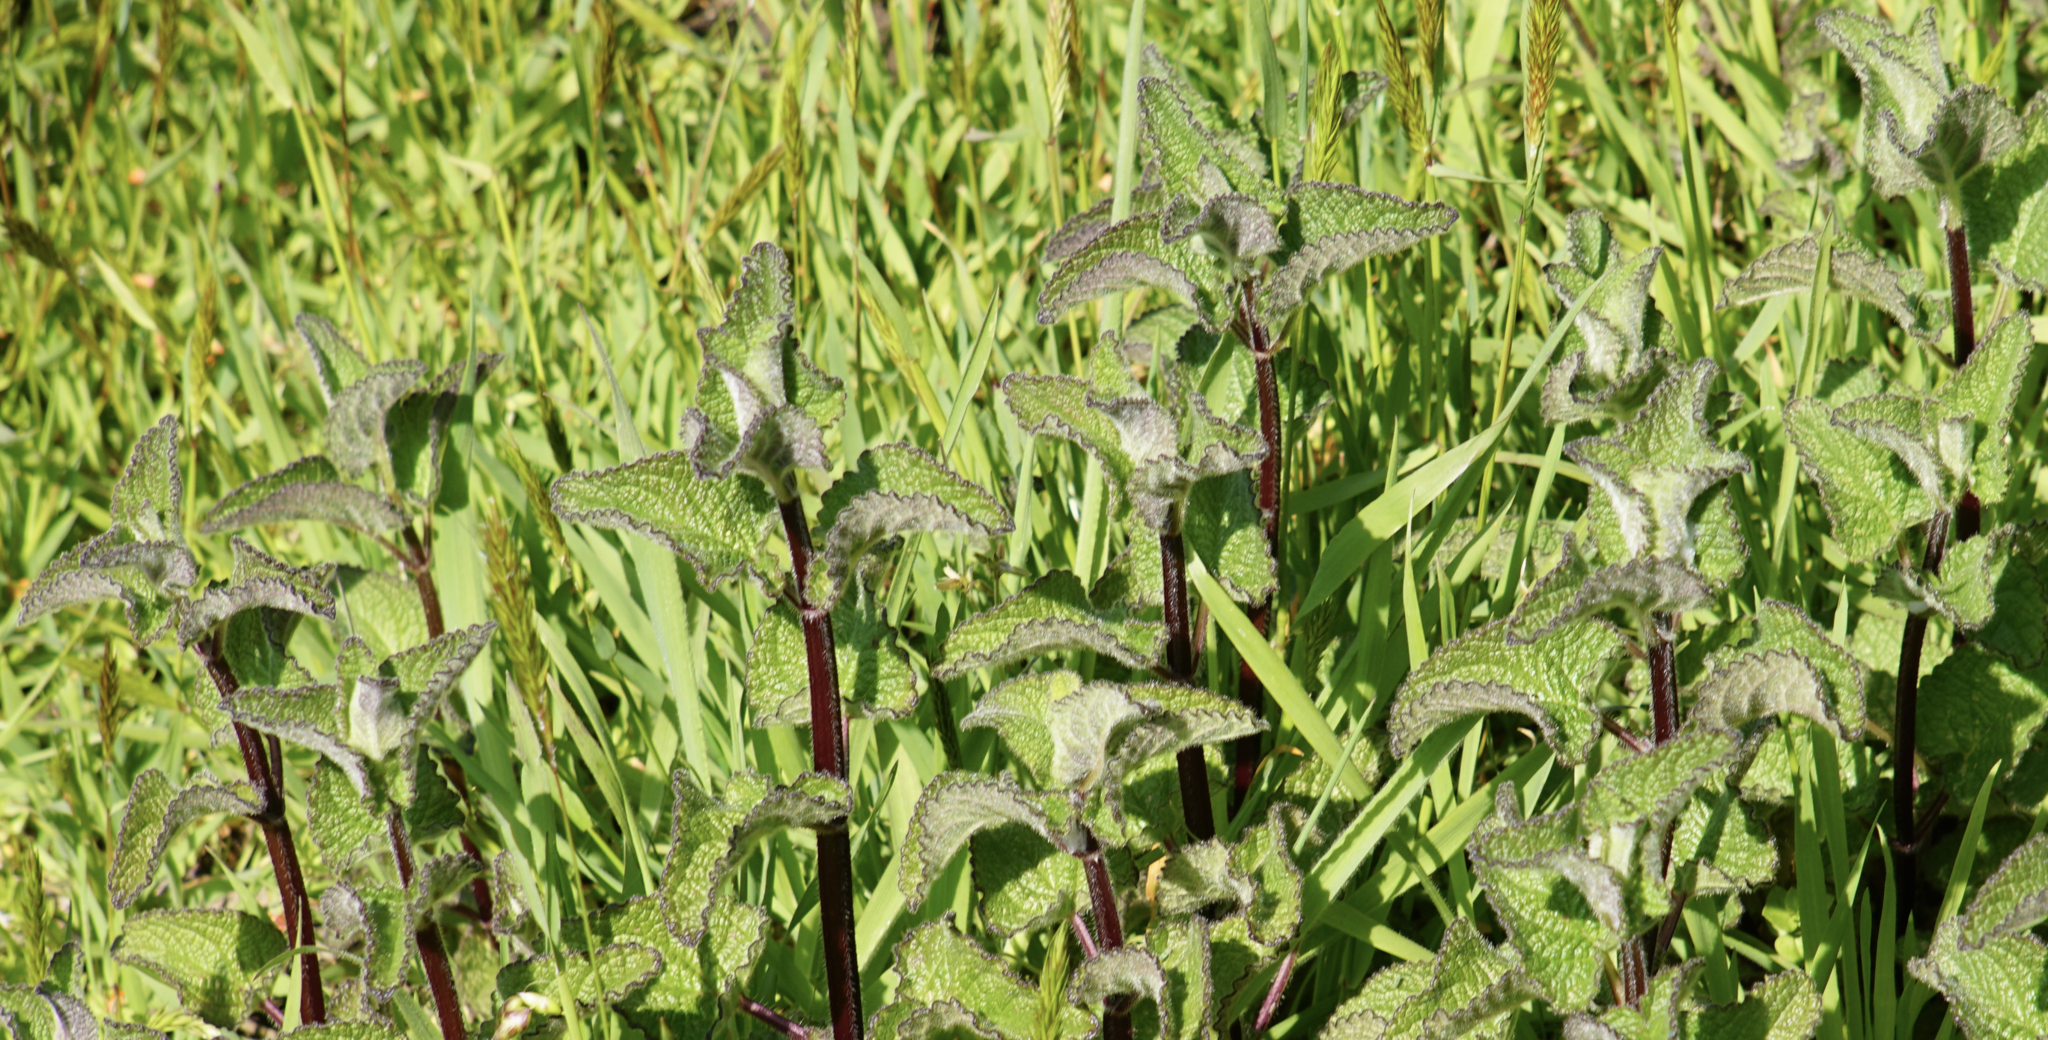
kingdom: Plantae
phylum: Tracheophyta
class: Magnoliopsida
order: Lamiales
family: Lamiaceae
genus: Stachys
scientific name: Stachys ajugoides
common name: Hedge-nettle
